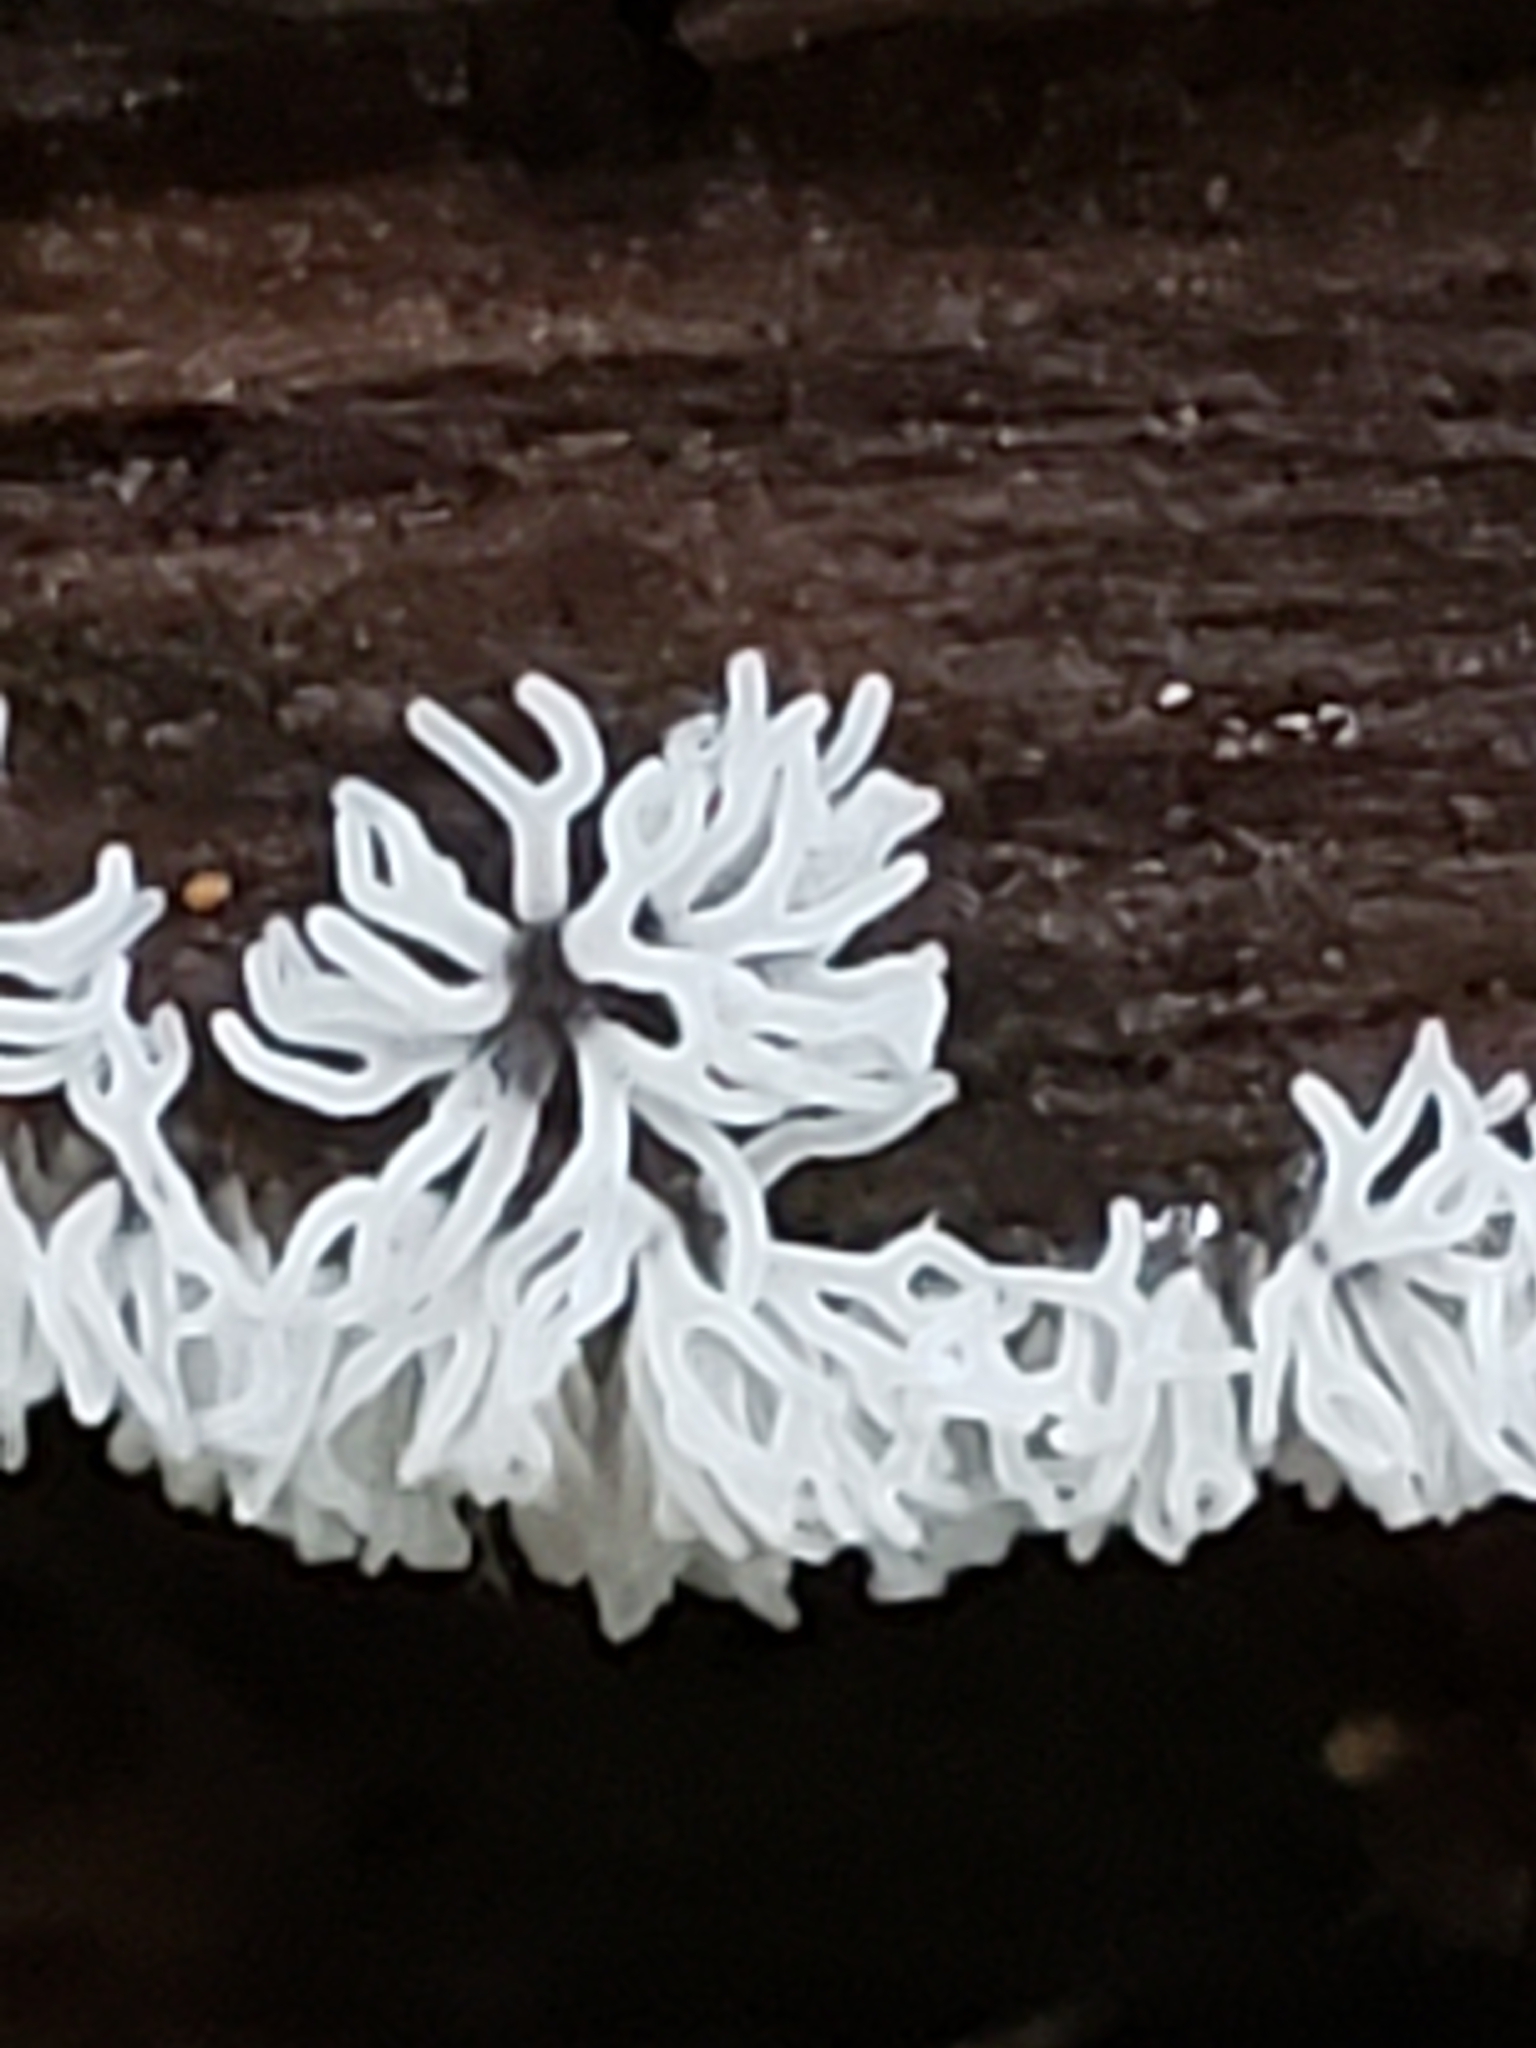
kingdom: Protozoa
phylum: Mycetozoa
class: Protosteliomycetes
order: Ceratiomyxales
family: Ceratiomyxaceae
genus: Ceratiomyxa
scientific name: Ceratiomyxa fruticulosa
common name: Honeycomb coral slime mold
